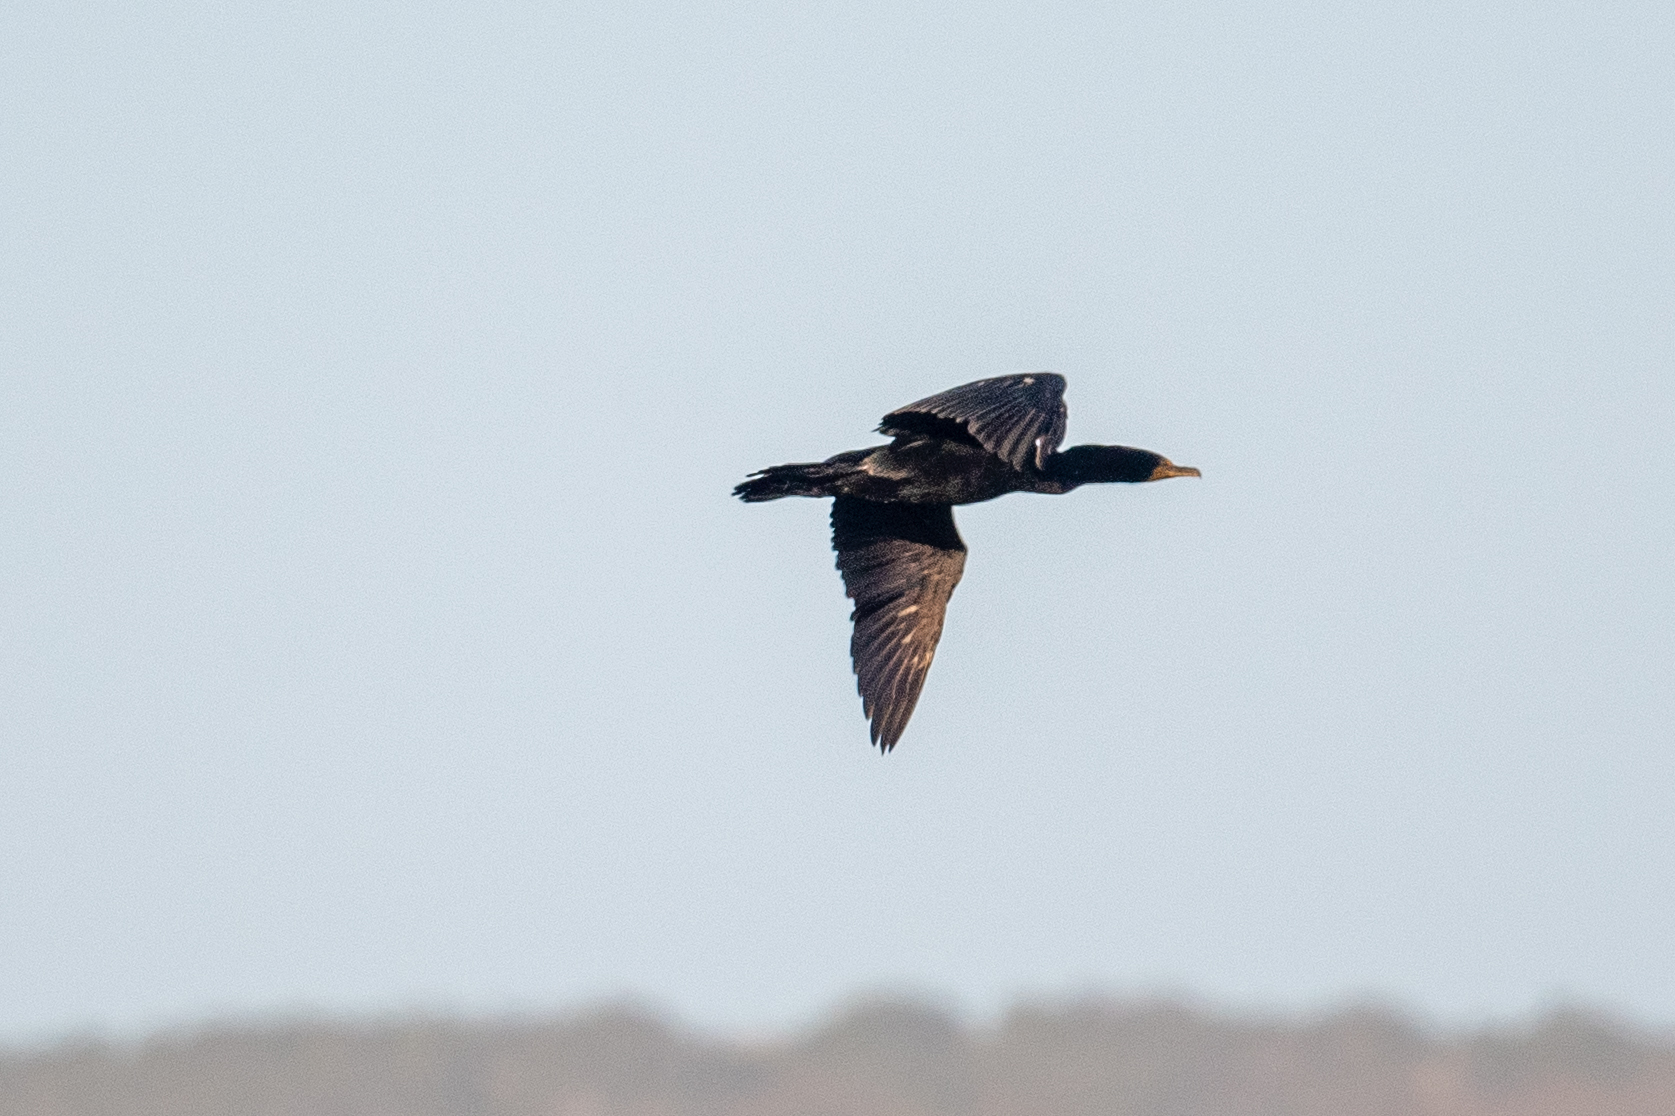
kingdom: Animalia
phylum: Chordata
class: Aves
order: Suliformes
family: Phalacrocoracidae
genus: Phalacrocorax
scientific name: Phalacrocorax auritus
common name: Double-crested cormorant
